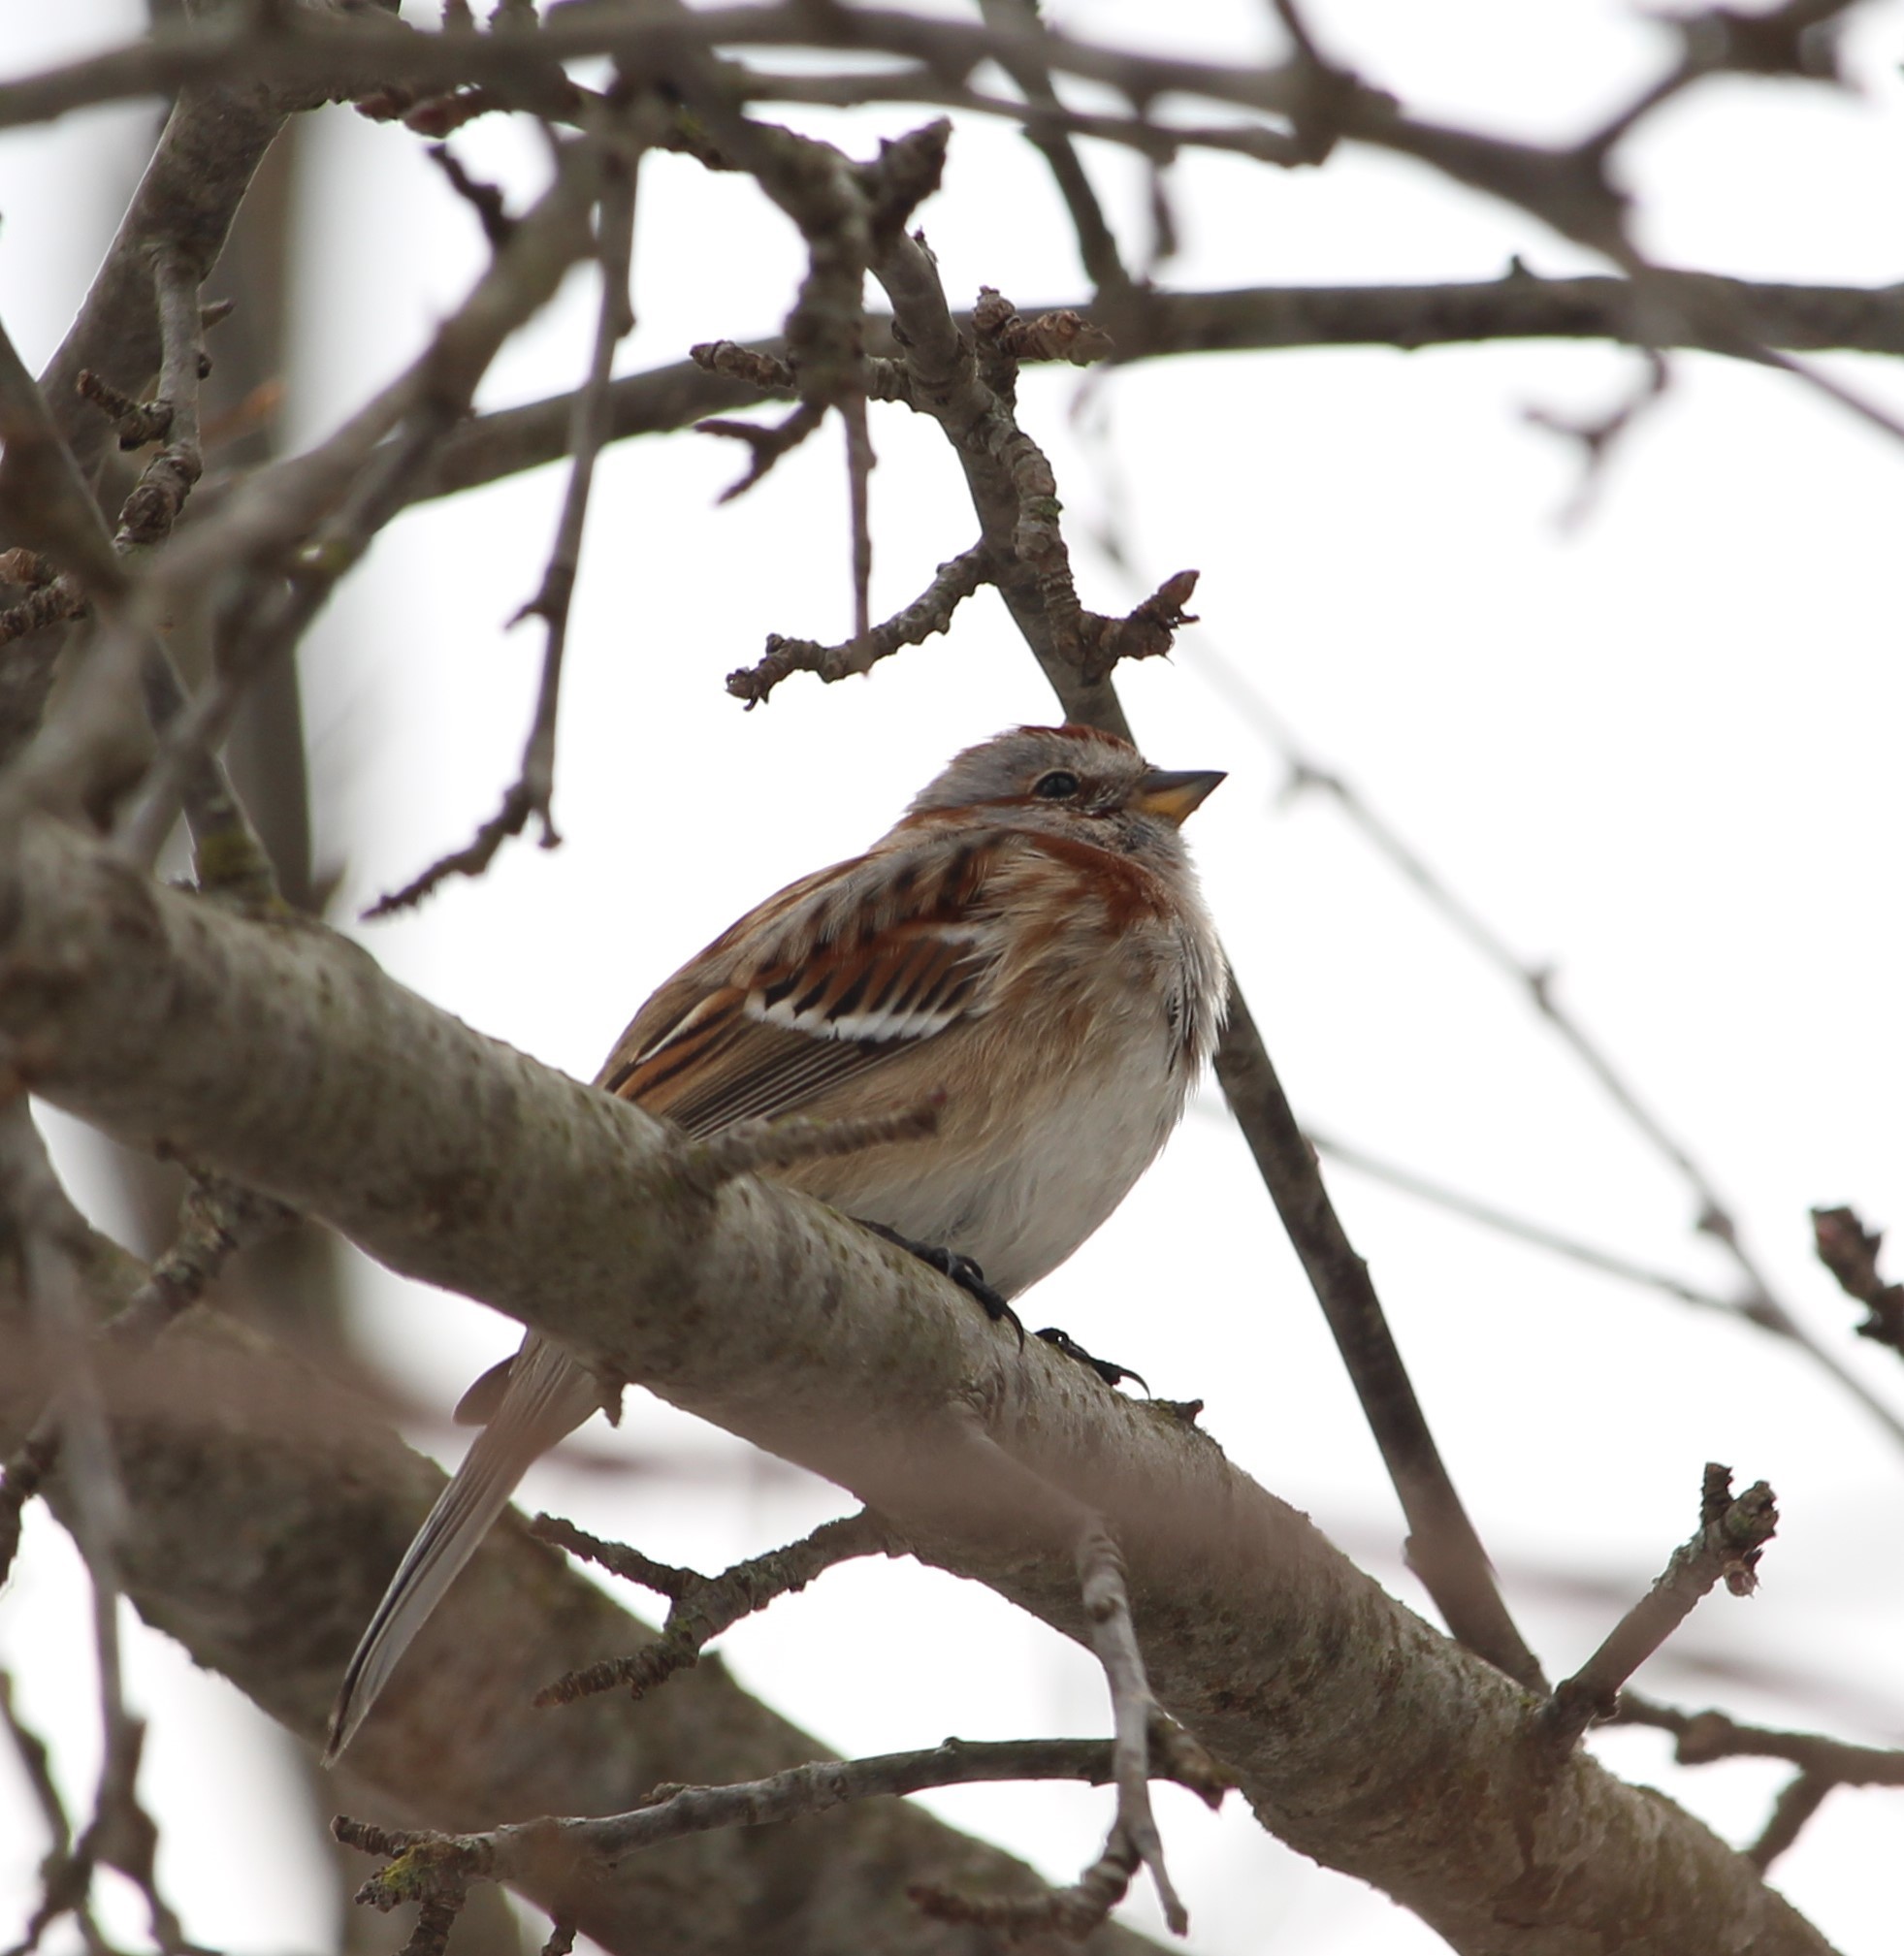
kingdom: Animalia
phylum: Chordata
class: Aves
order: Passeriformes
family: Passerellidae
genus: Spizelloides
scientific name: Spizelloides arborea
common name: American tree sparrow
